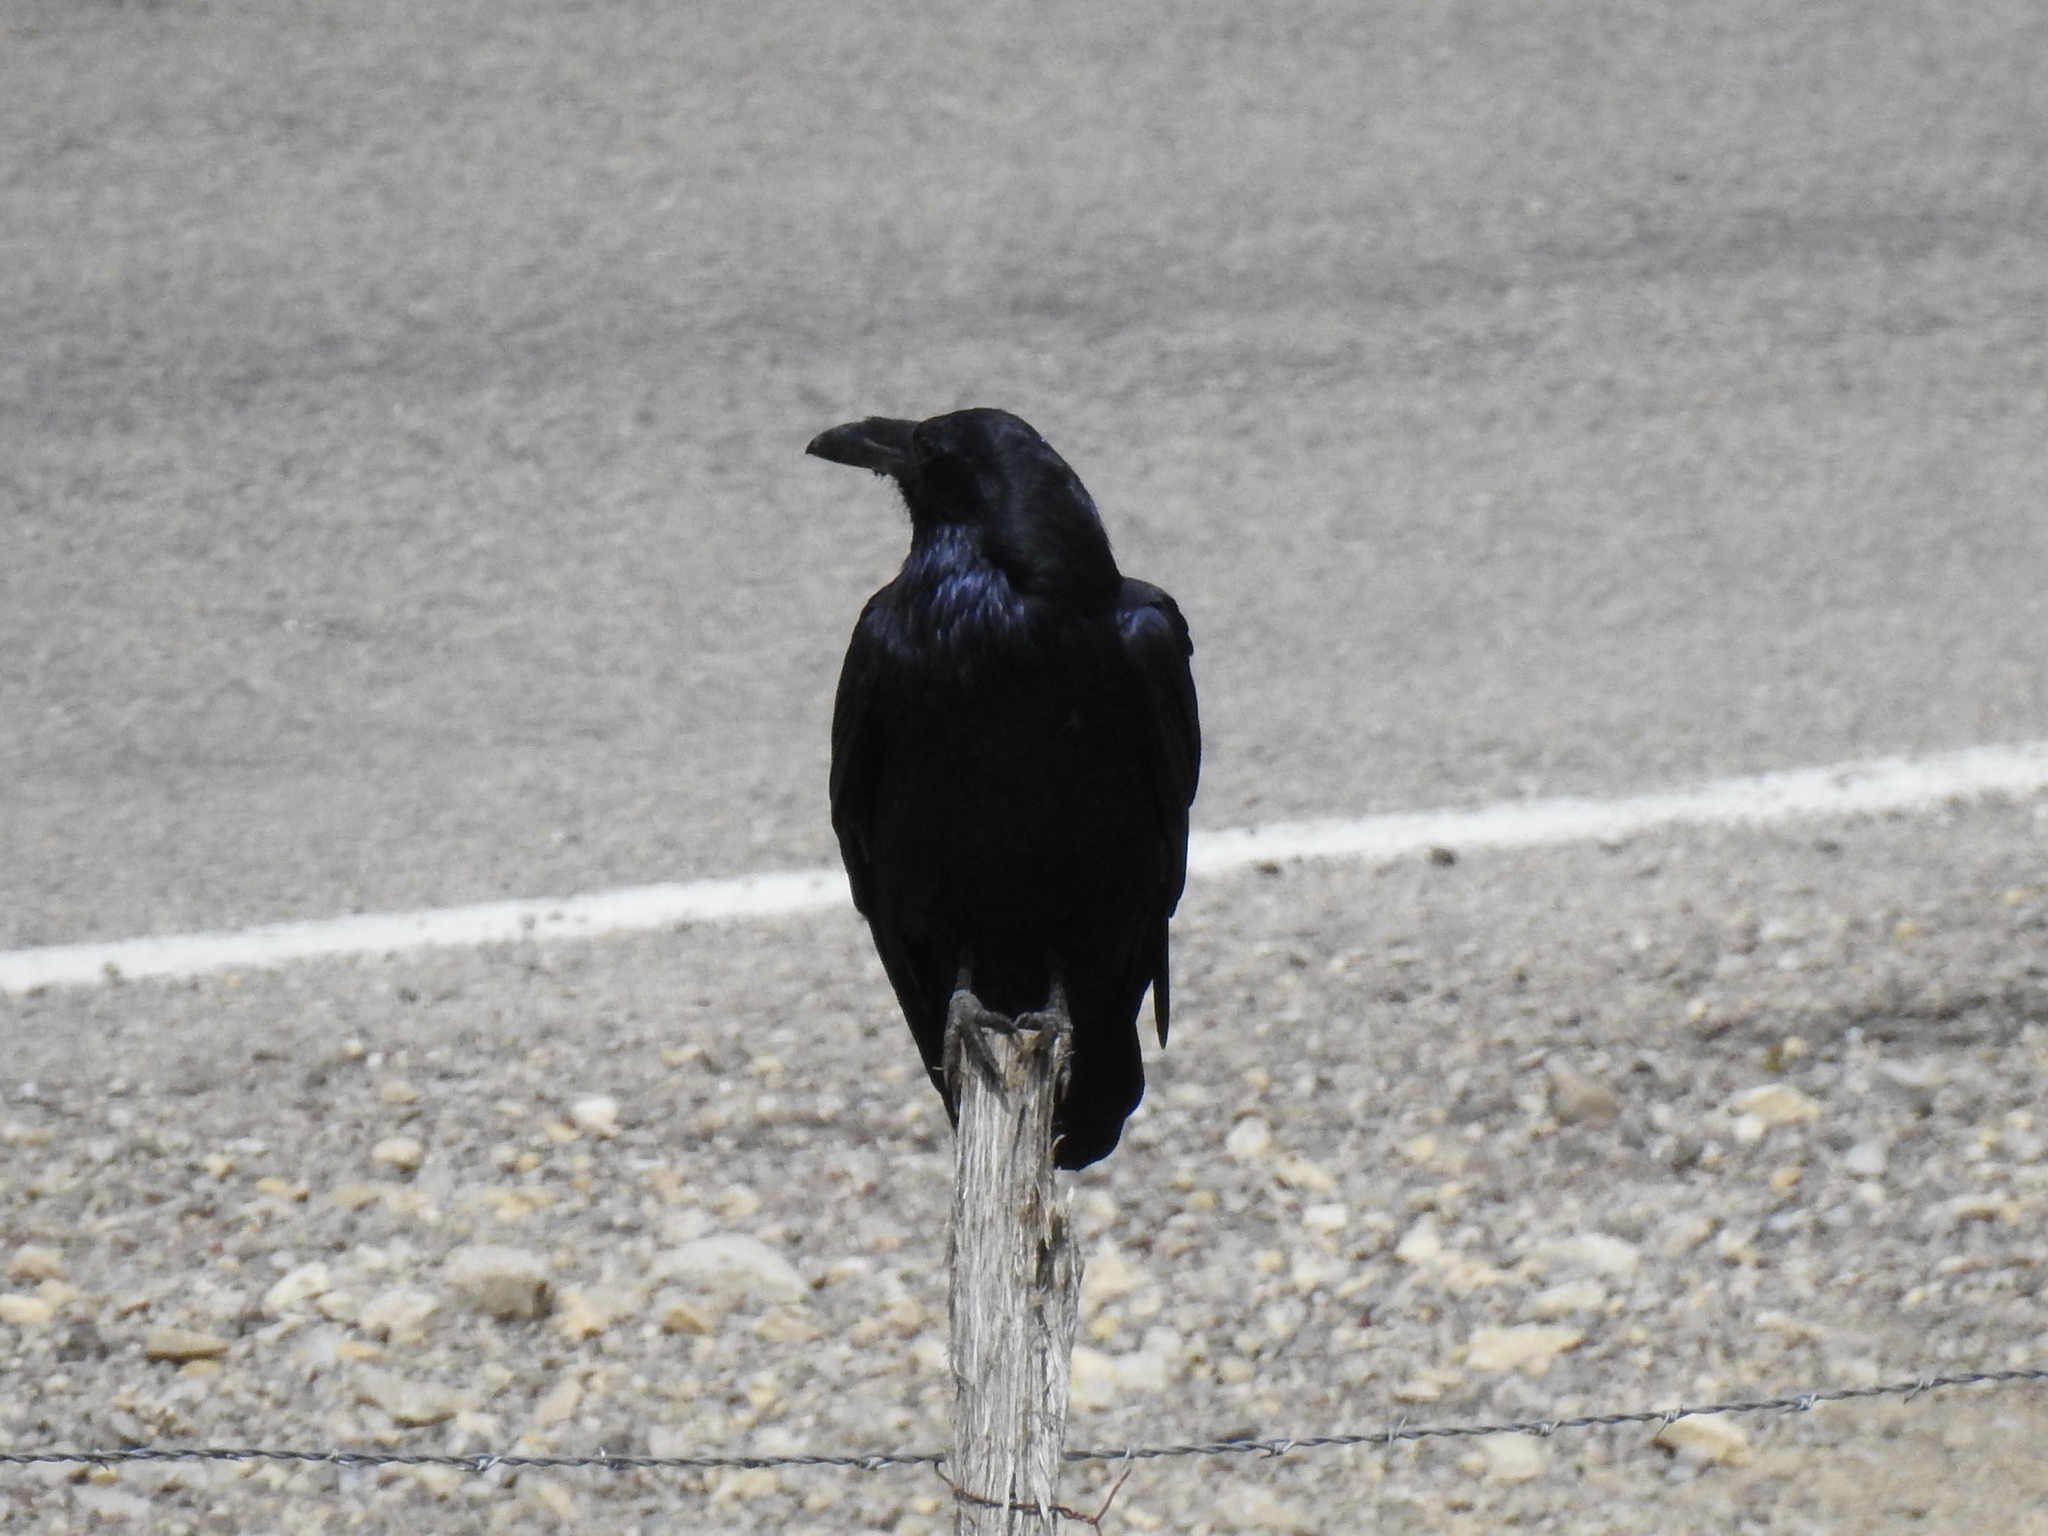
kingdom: Animalia
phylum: Chordata
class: Aves
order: Passeriformes
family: Corvidae
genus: Corvus
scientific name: Corvus corax
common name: Common raven
